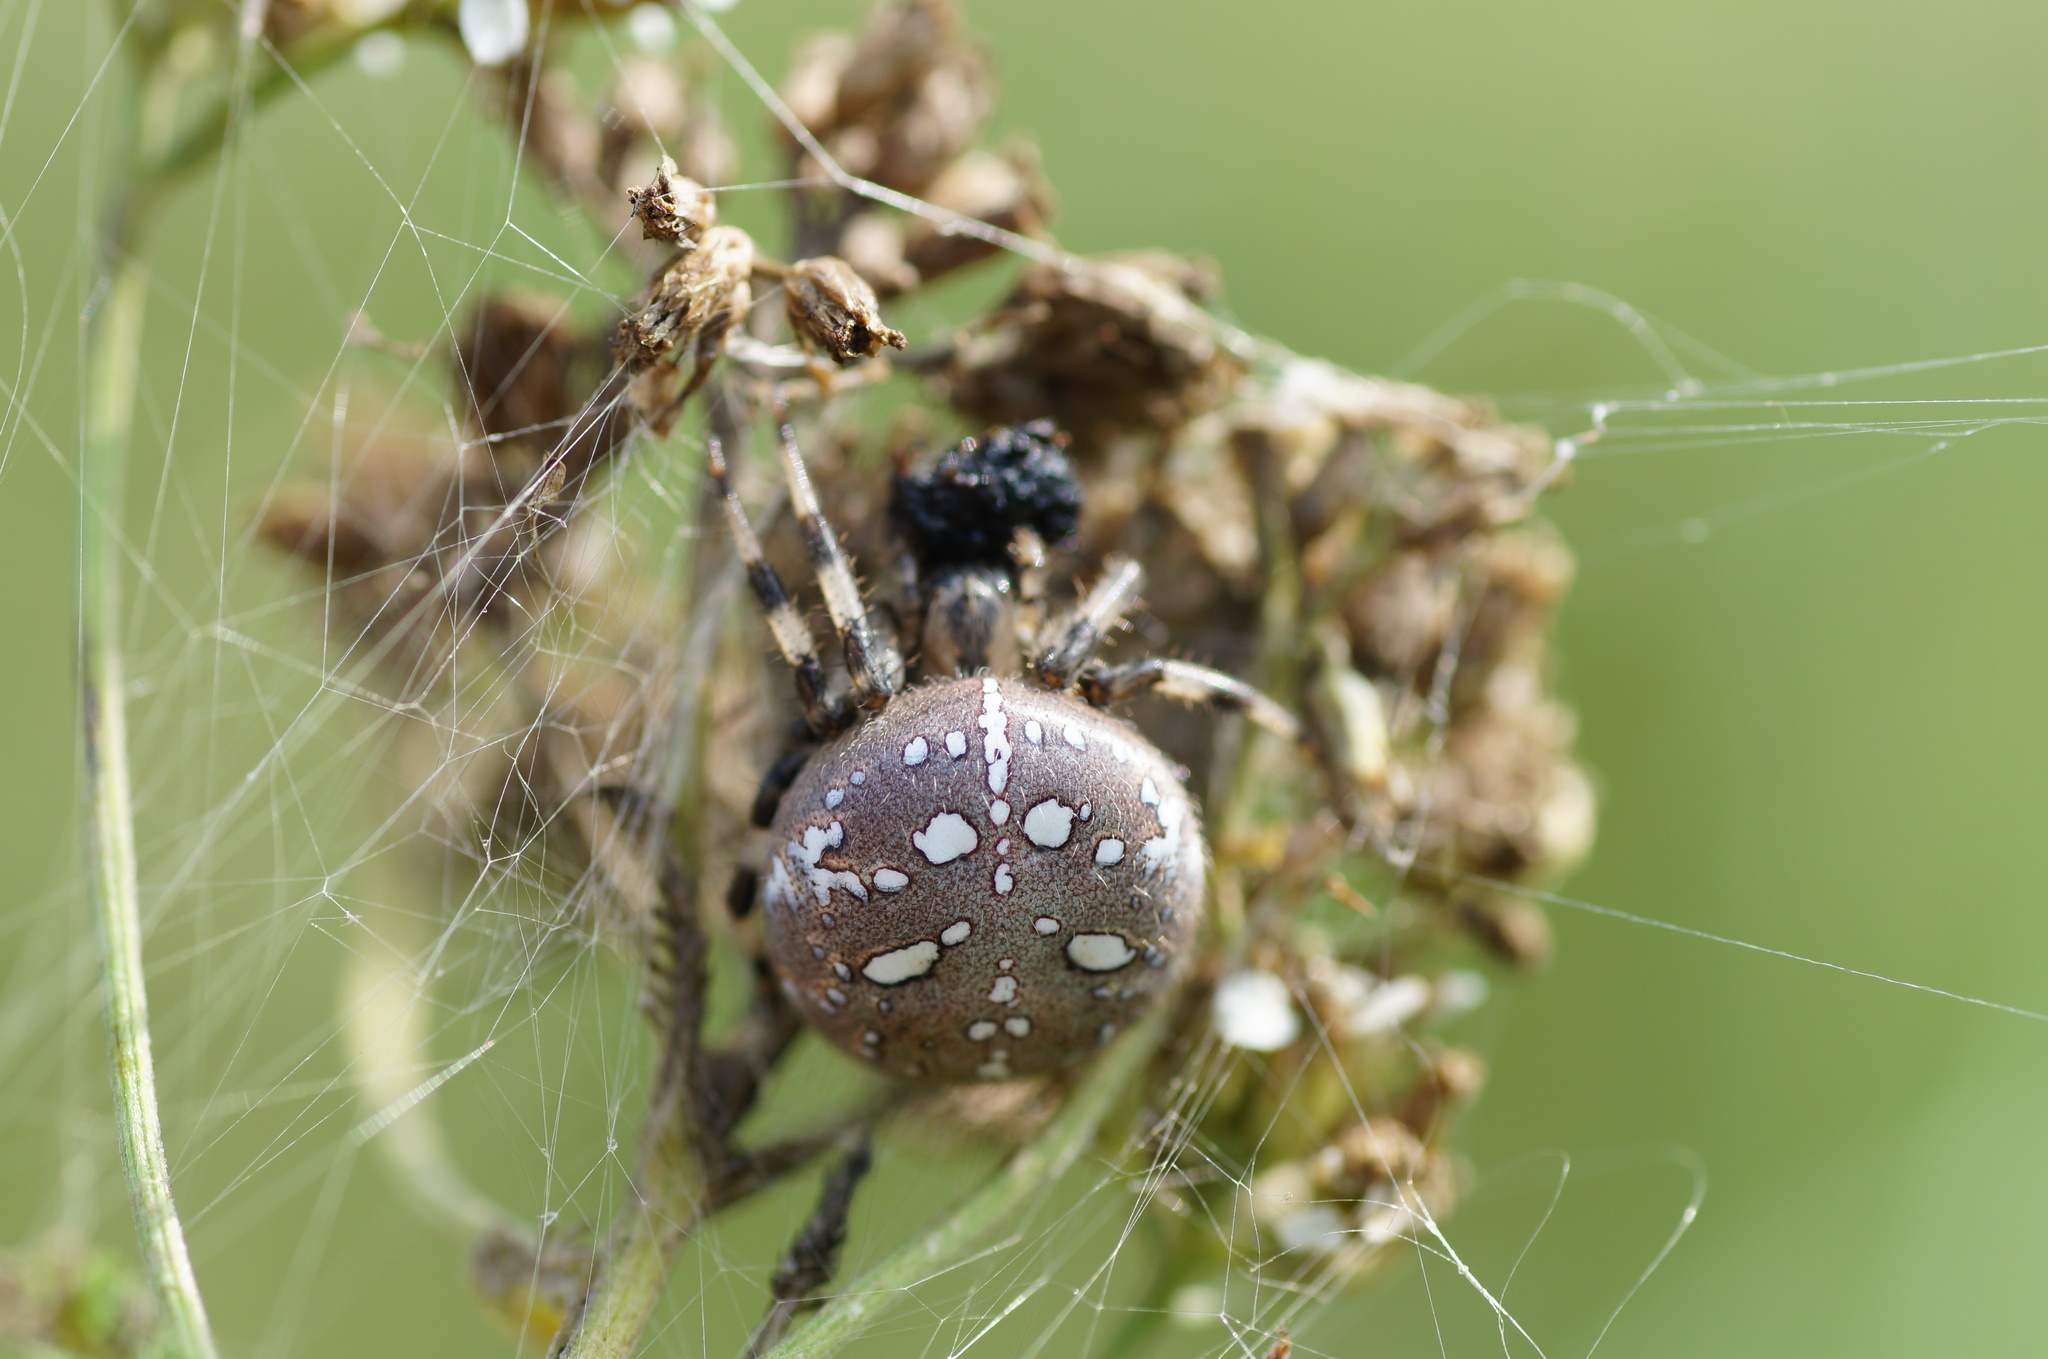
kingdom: Animalia
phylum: Arthropoda
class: Arachnida
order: Araneae
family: Araneidae
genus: Araneus
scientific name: Araneus quadratus
